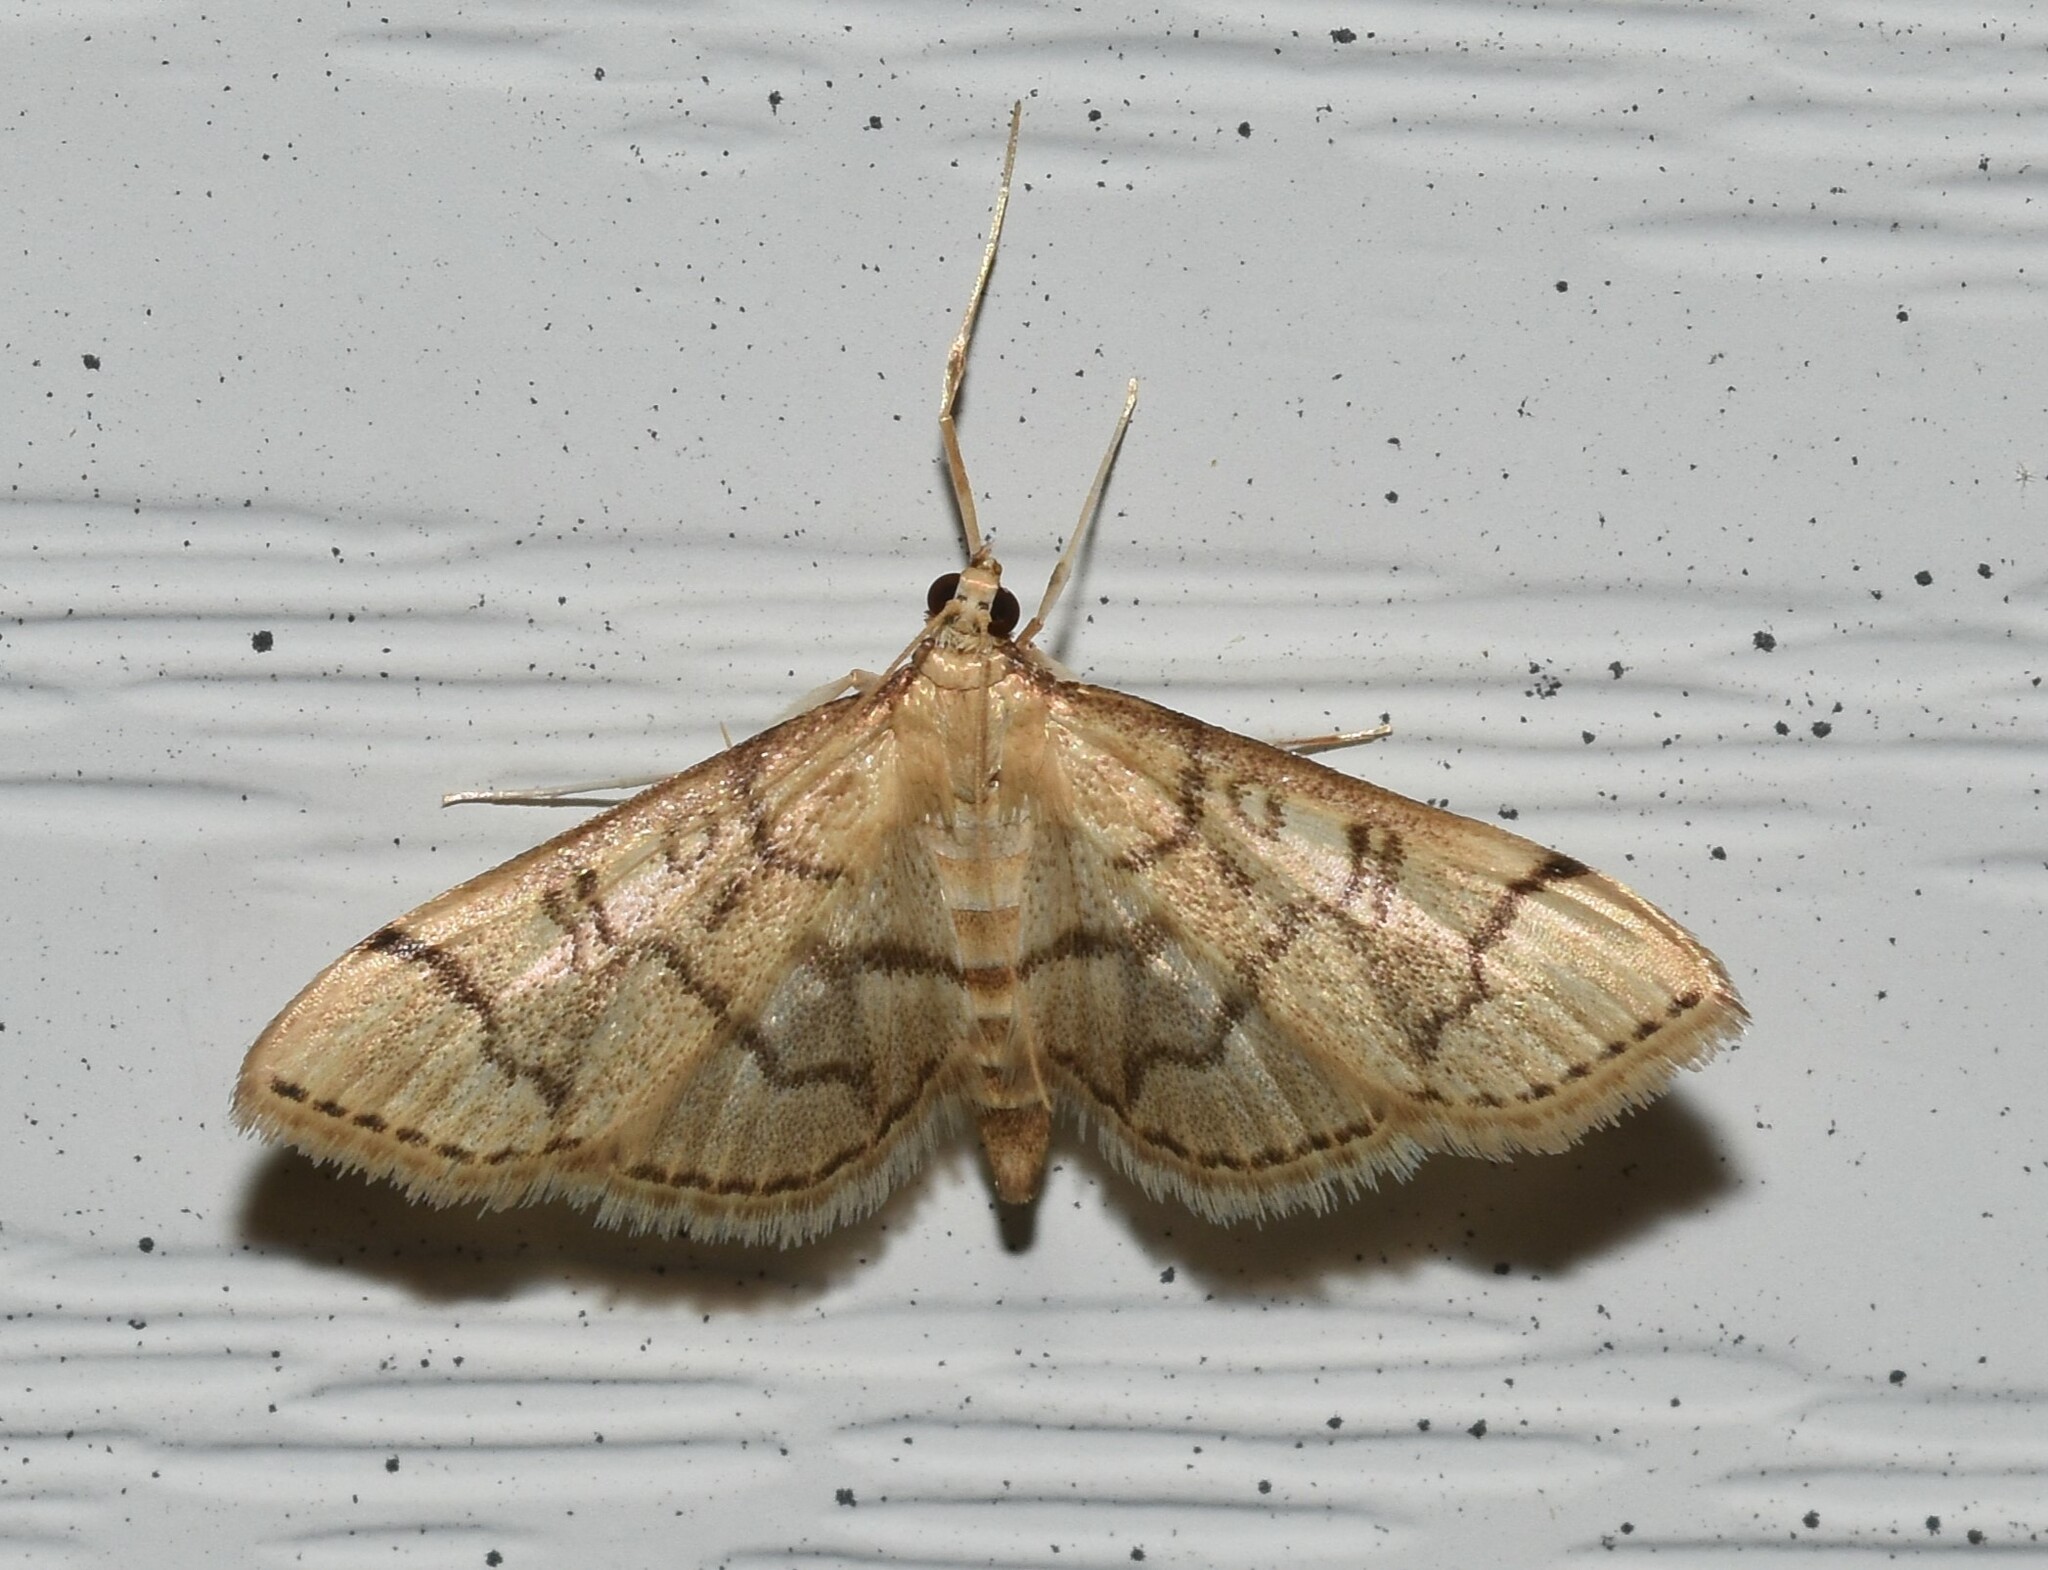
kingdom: Animalia
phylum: Arthropoda
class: Insecta
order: Lepidoptera
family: Crambidae
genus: Lamprosema
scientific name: Lamprosema Blepharomastix ranalis
